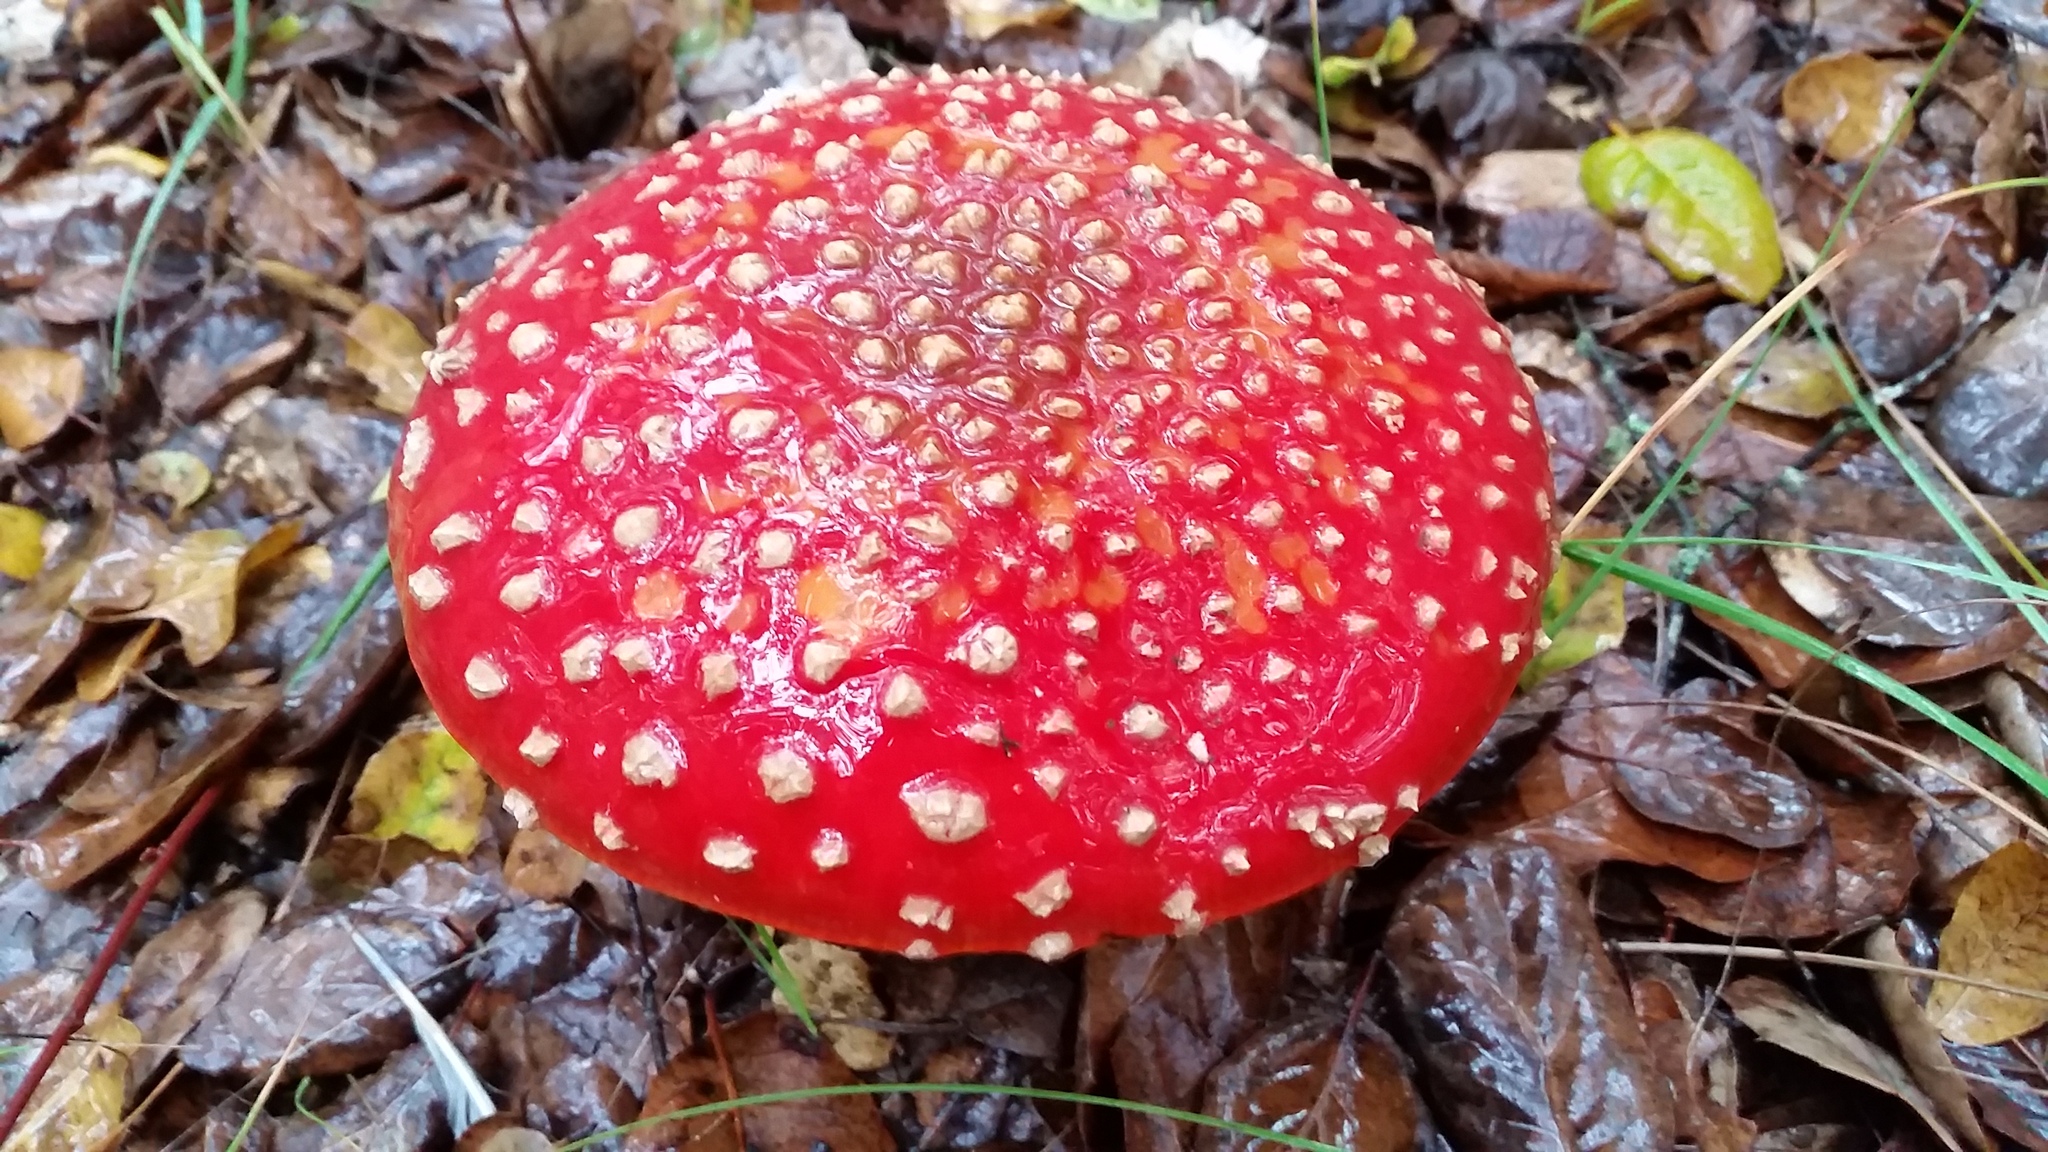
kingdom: Fungi
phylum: Basidiomycota
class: Agaricomycetes
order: Agaricales
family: Amanitaceae
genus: Amanita
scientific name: Amanita muscaria
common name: Fly agaric
